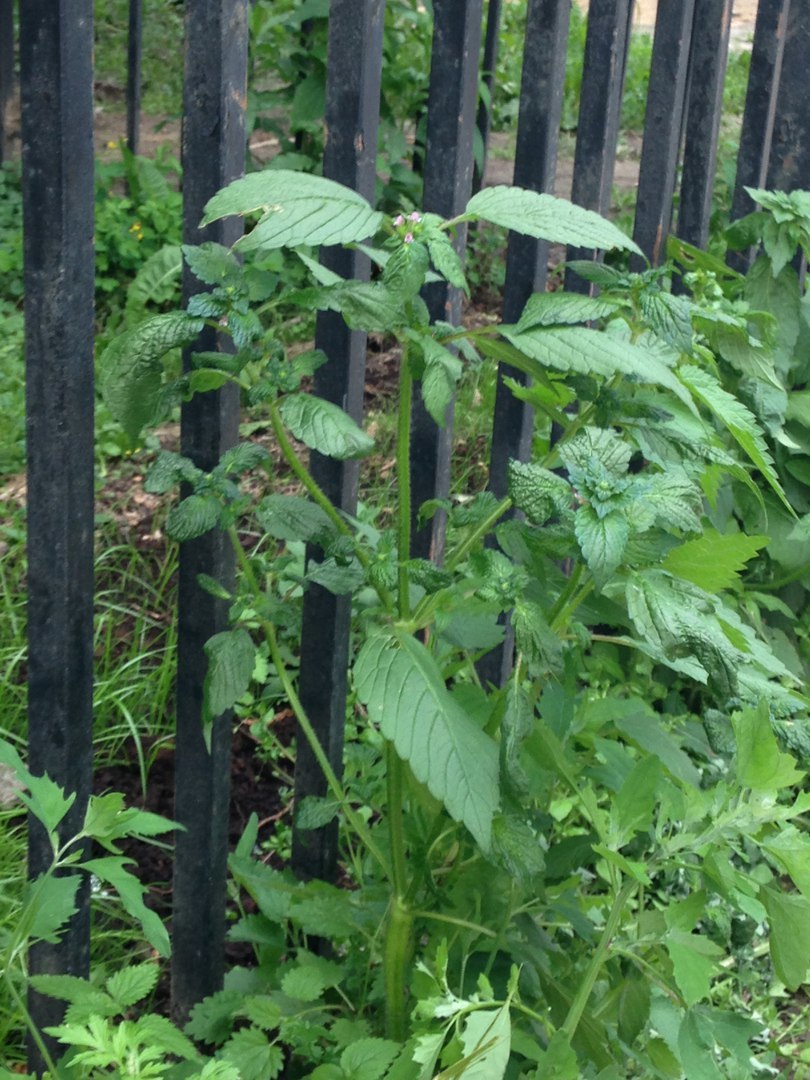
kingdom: Plantae
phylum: Tracheophyta
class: Magnoliopsida
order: Lamiales
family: Lamiaceae
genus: Galeopsis
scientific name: Galeopsis bifida
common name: Bifid hemp-nettle
